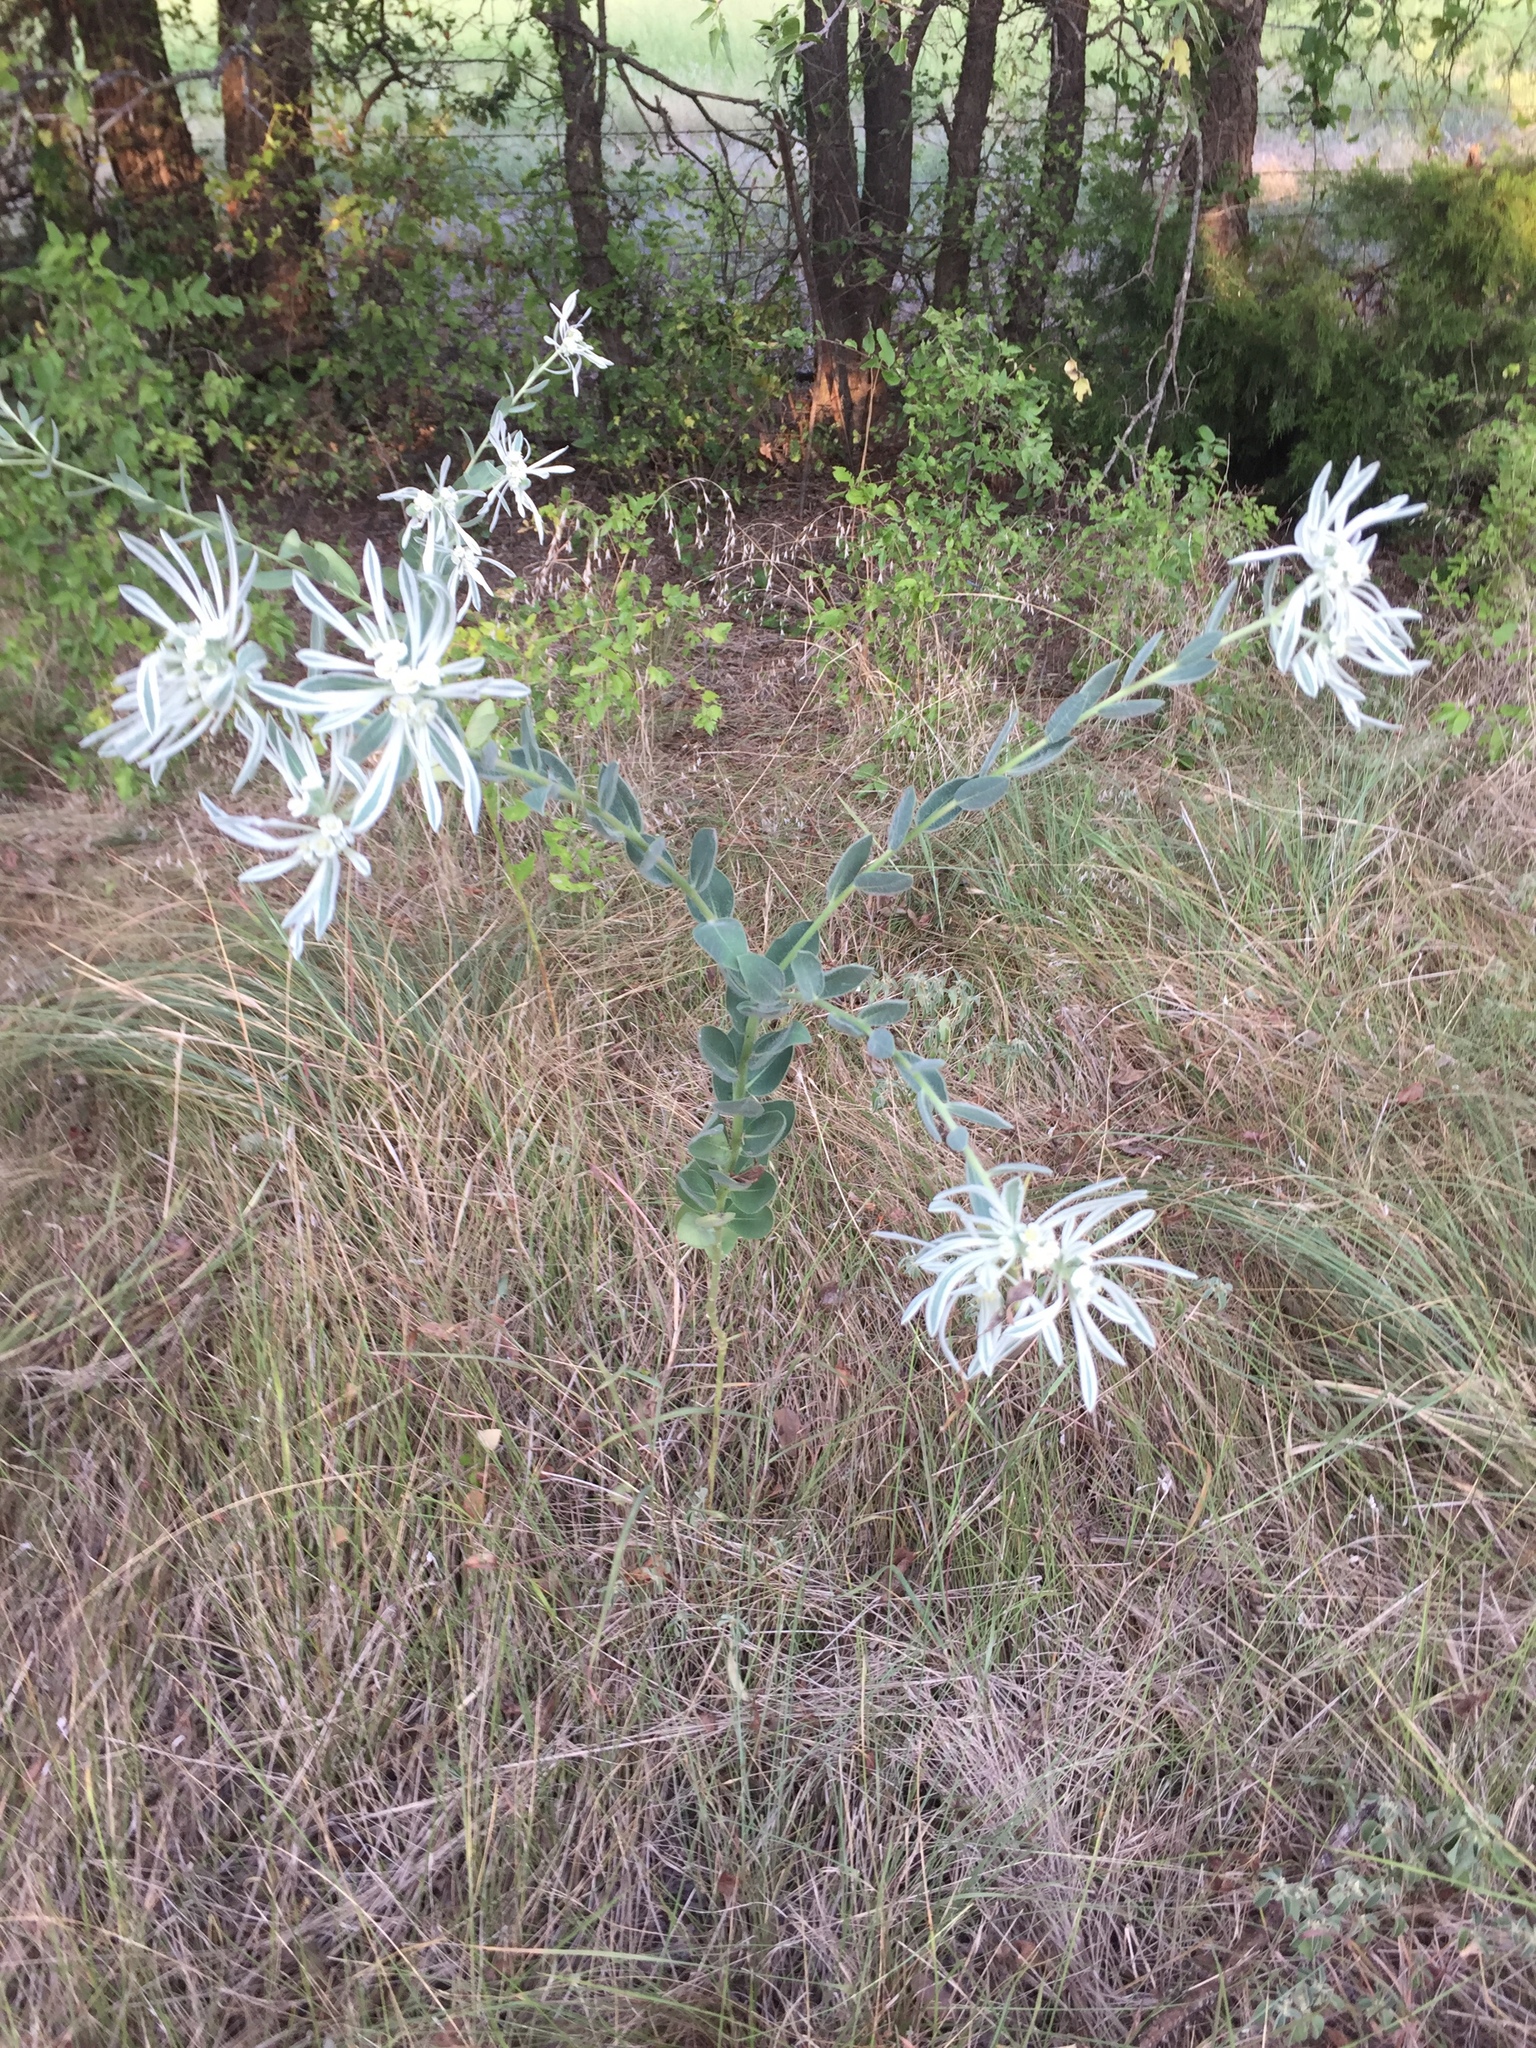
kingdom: Plantae
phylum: Tracheophyta
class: Magnoliopsida
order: Malpighiales
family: Euphorbiaceae
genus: Euphorbia
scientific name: Euphorbia bicolor
